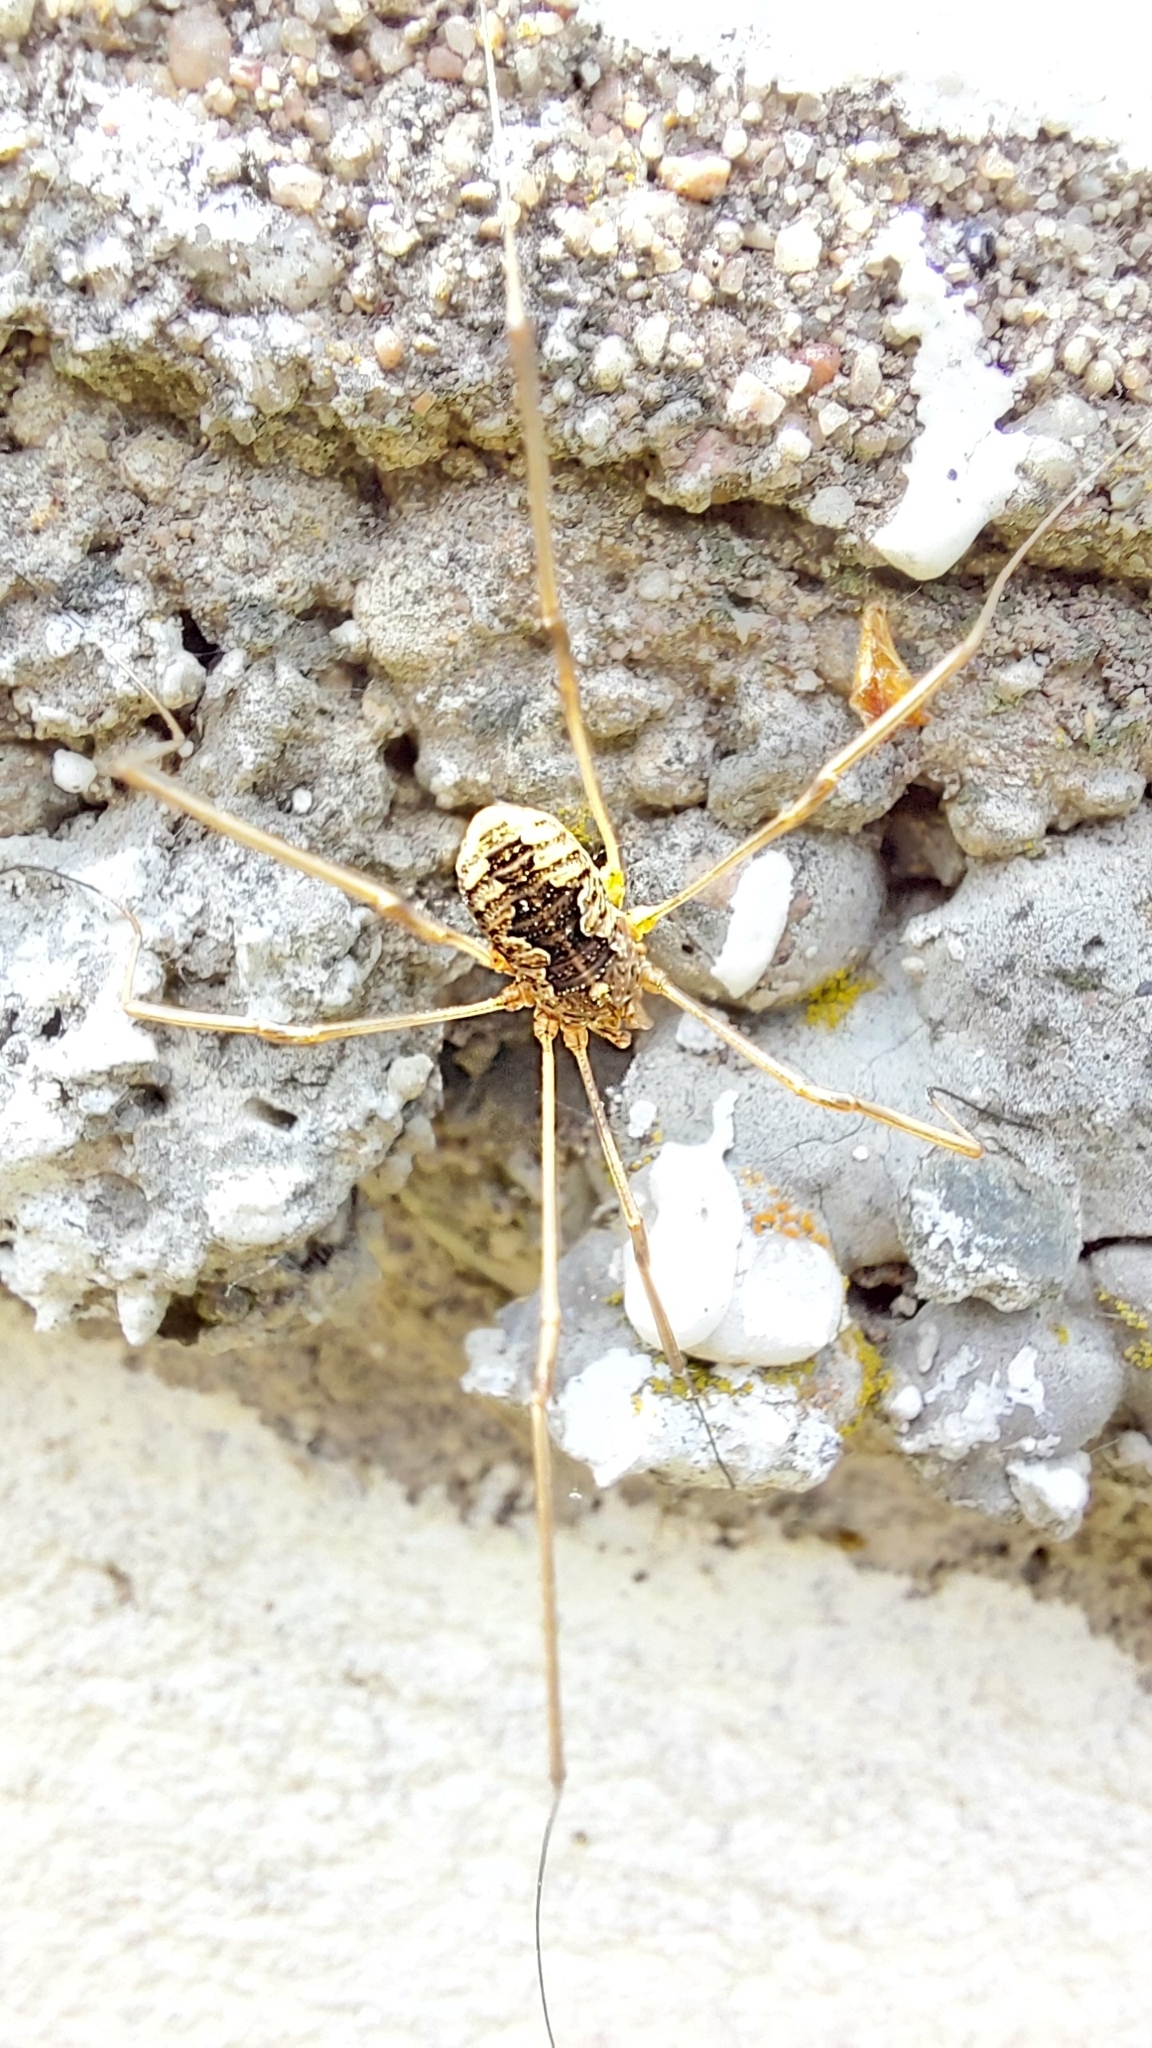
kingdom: Animalia
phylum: Arthropoda
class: Arachnida
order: Opiliones
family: Phalangiidae
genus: Phalangium
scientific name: Phalangium opilio
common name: Daddy longleg
